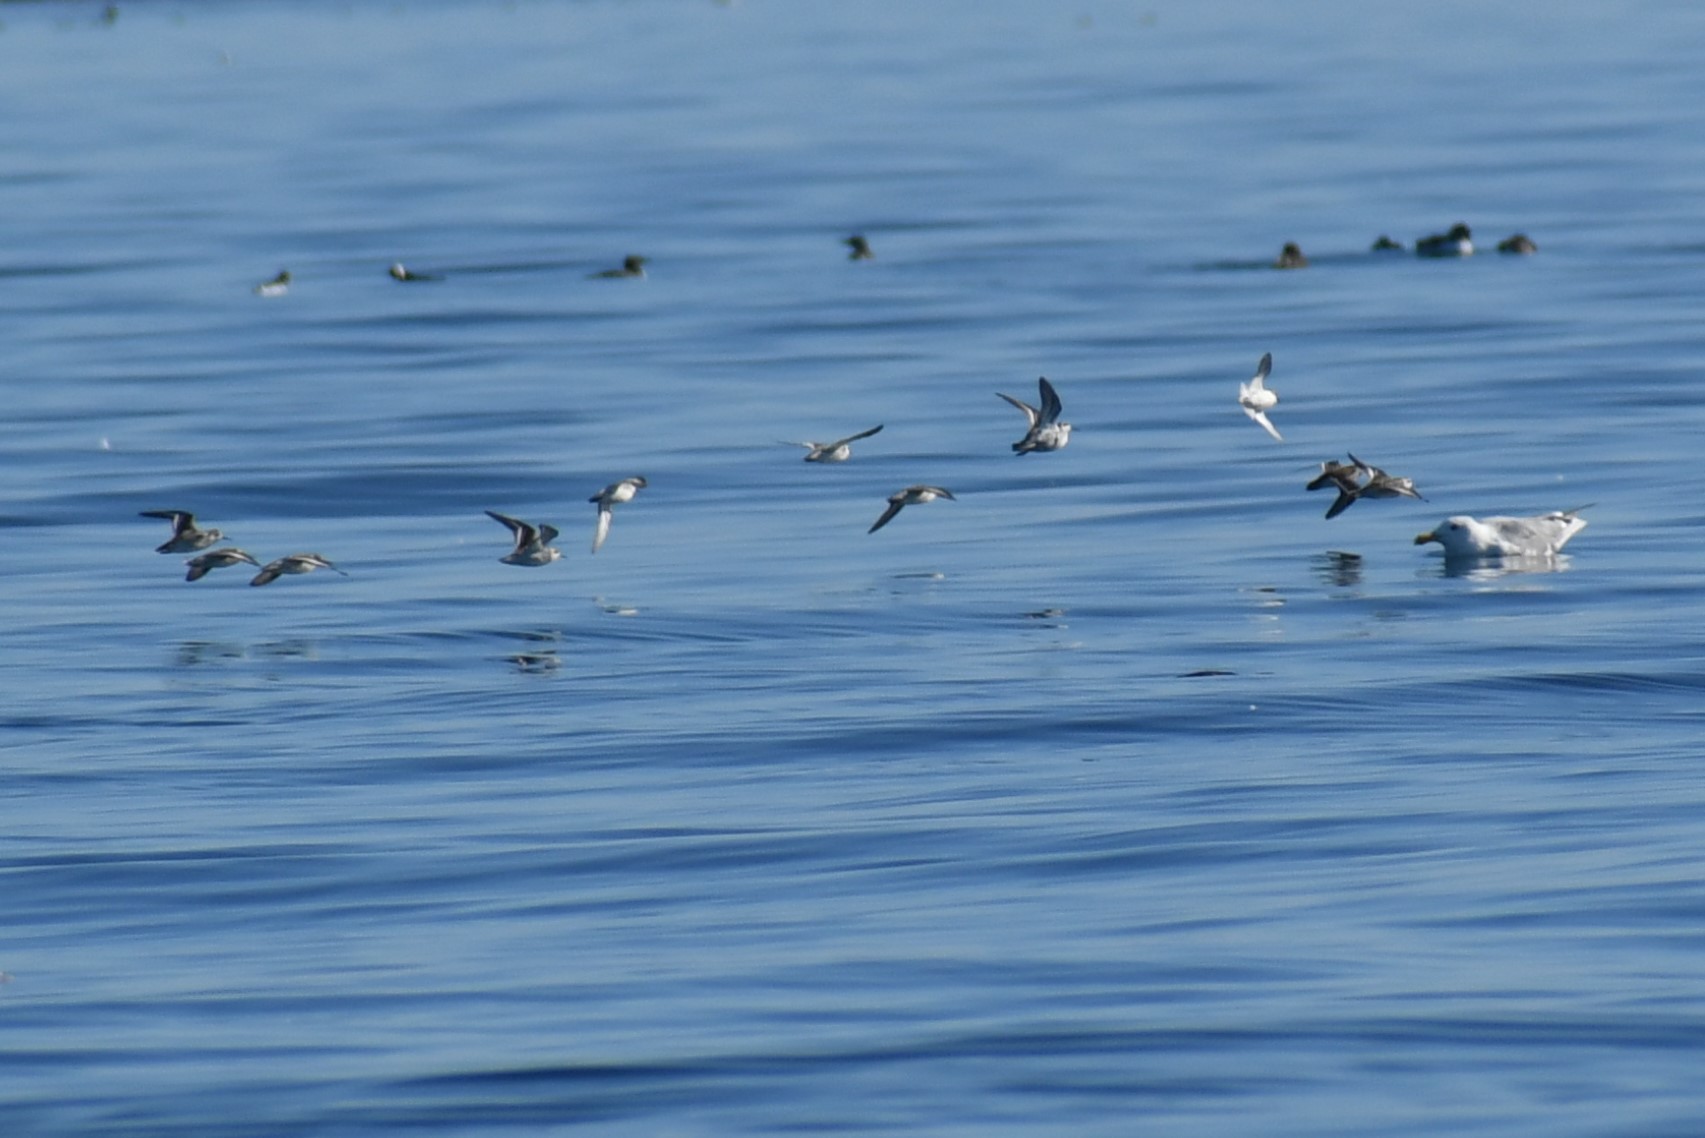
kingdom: Animalia
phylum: Chordata
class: Aves
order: Charadriiformes
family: Scolopacidae
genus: Phalaropus
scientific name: Phalaropus lobatus
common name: Red-necked phalarope
